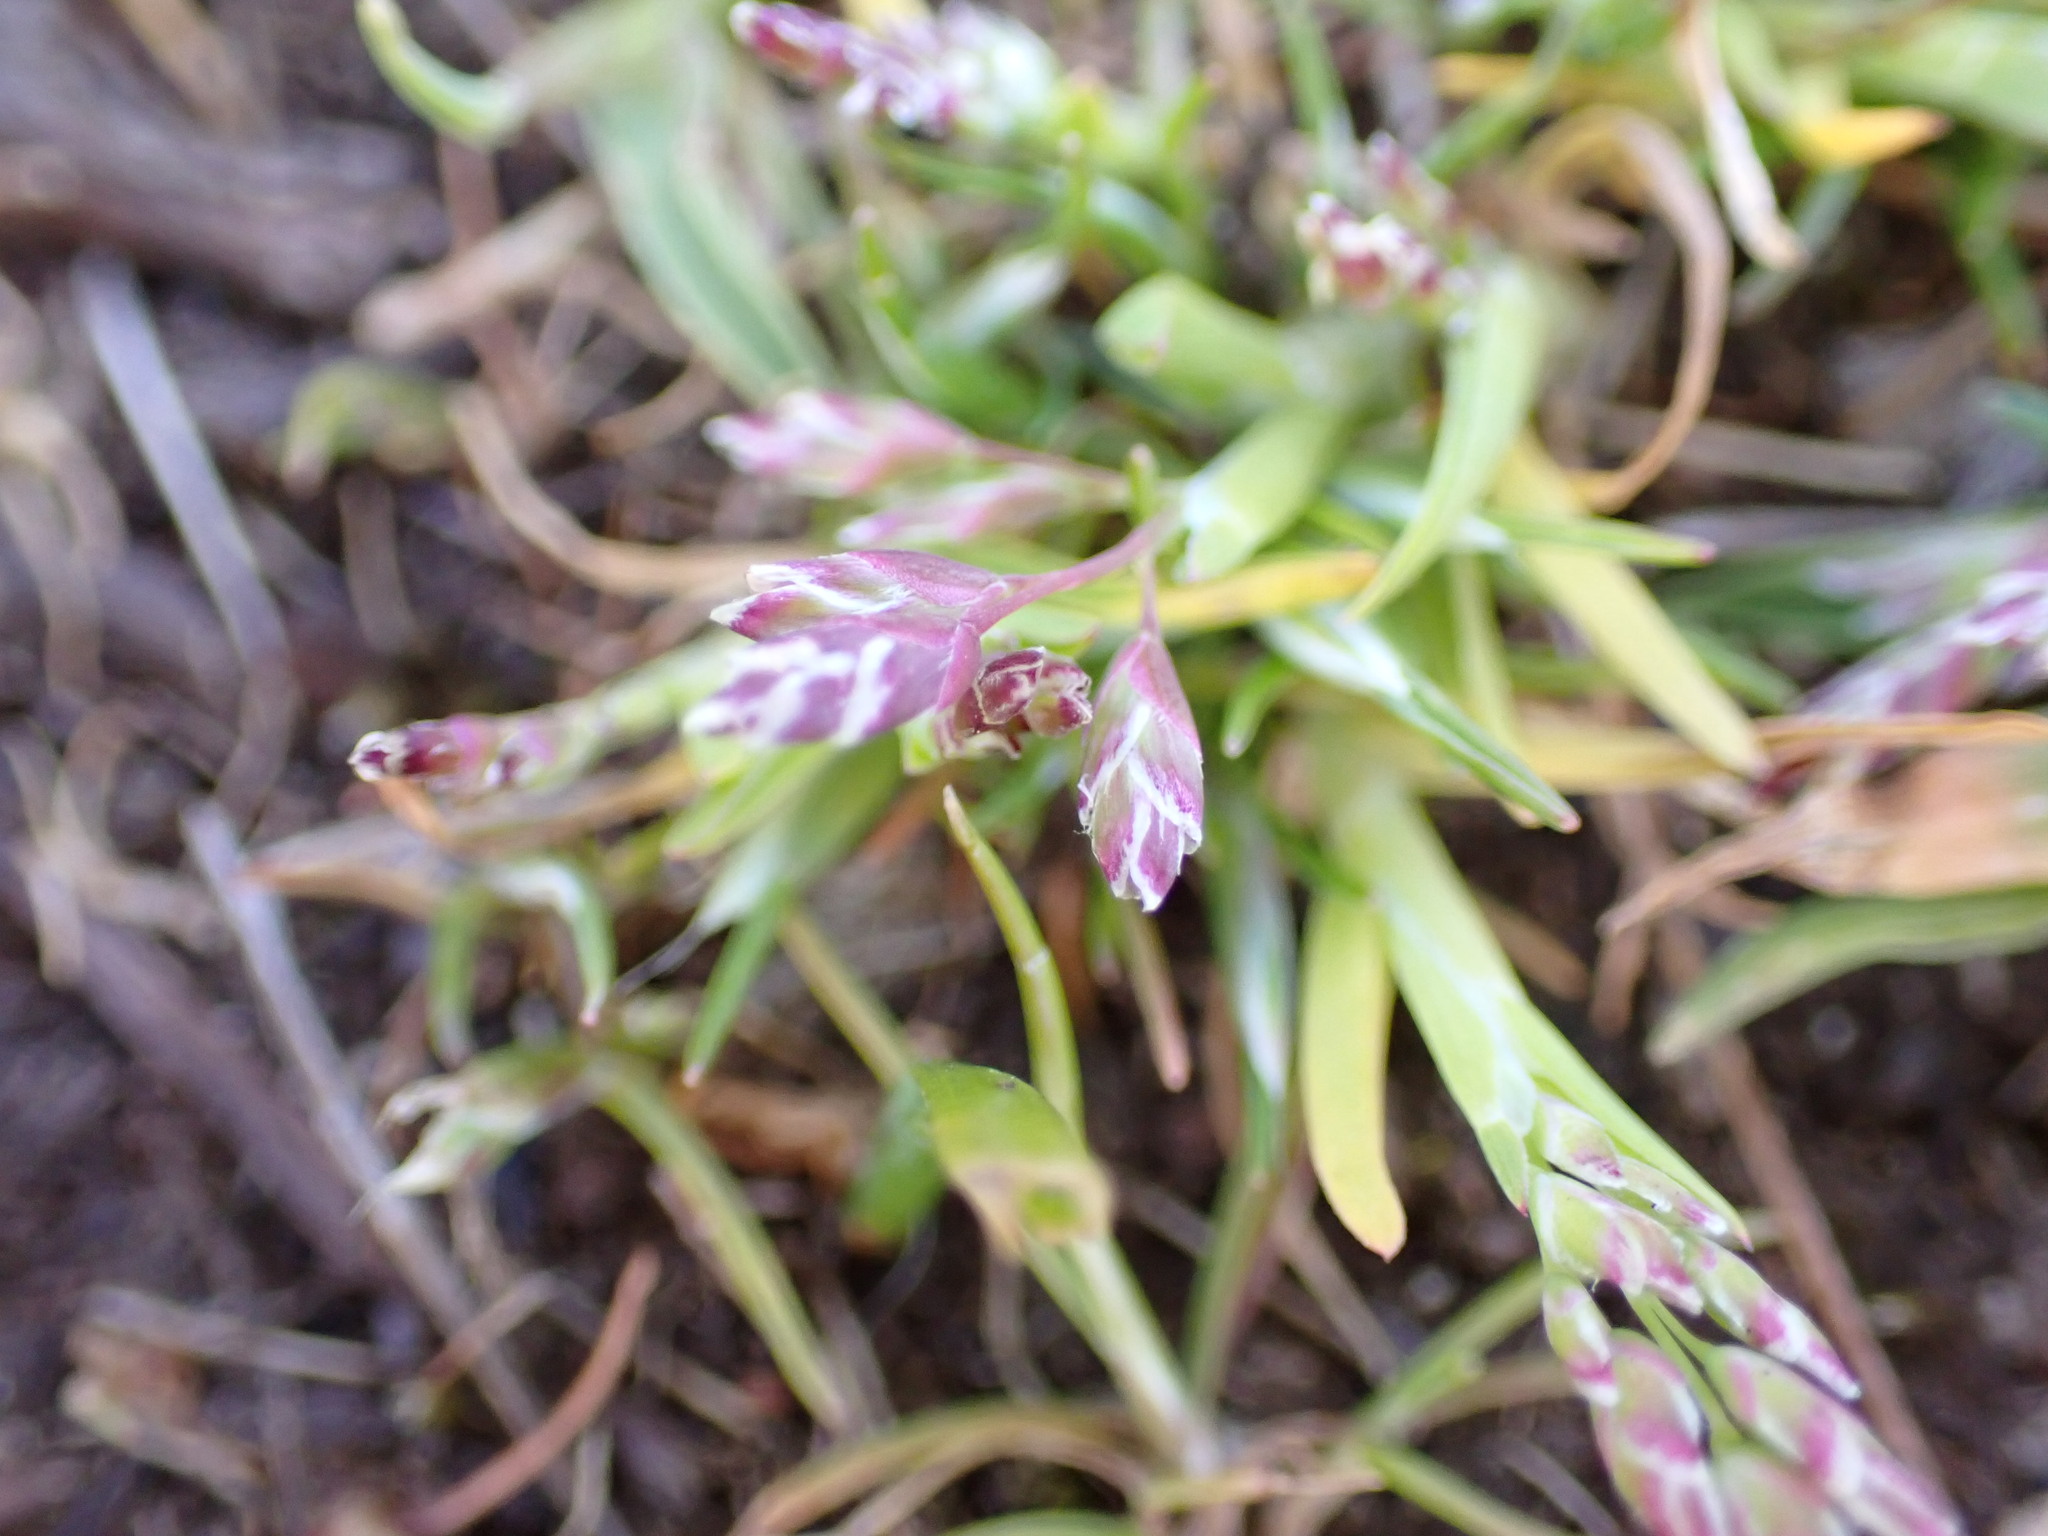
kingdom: Plantae
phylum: Tracheophyta
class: Liliopsida
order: Poales
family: Poaceae
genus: Poa
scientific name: Poa annua
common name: Annual bluegrass
